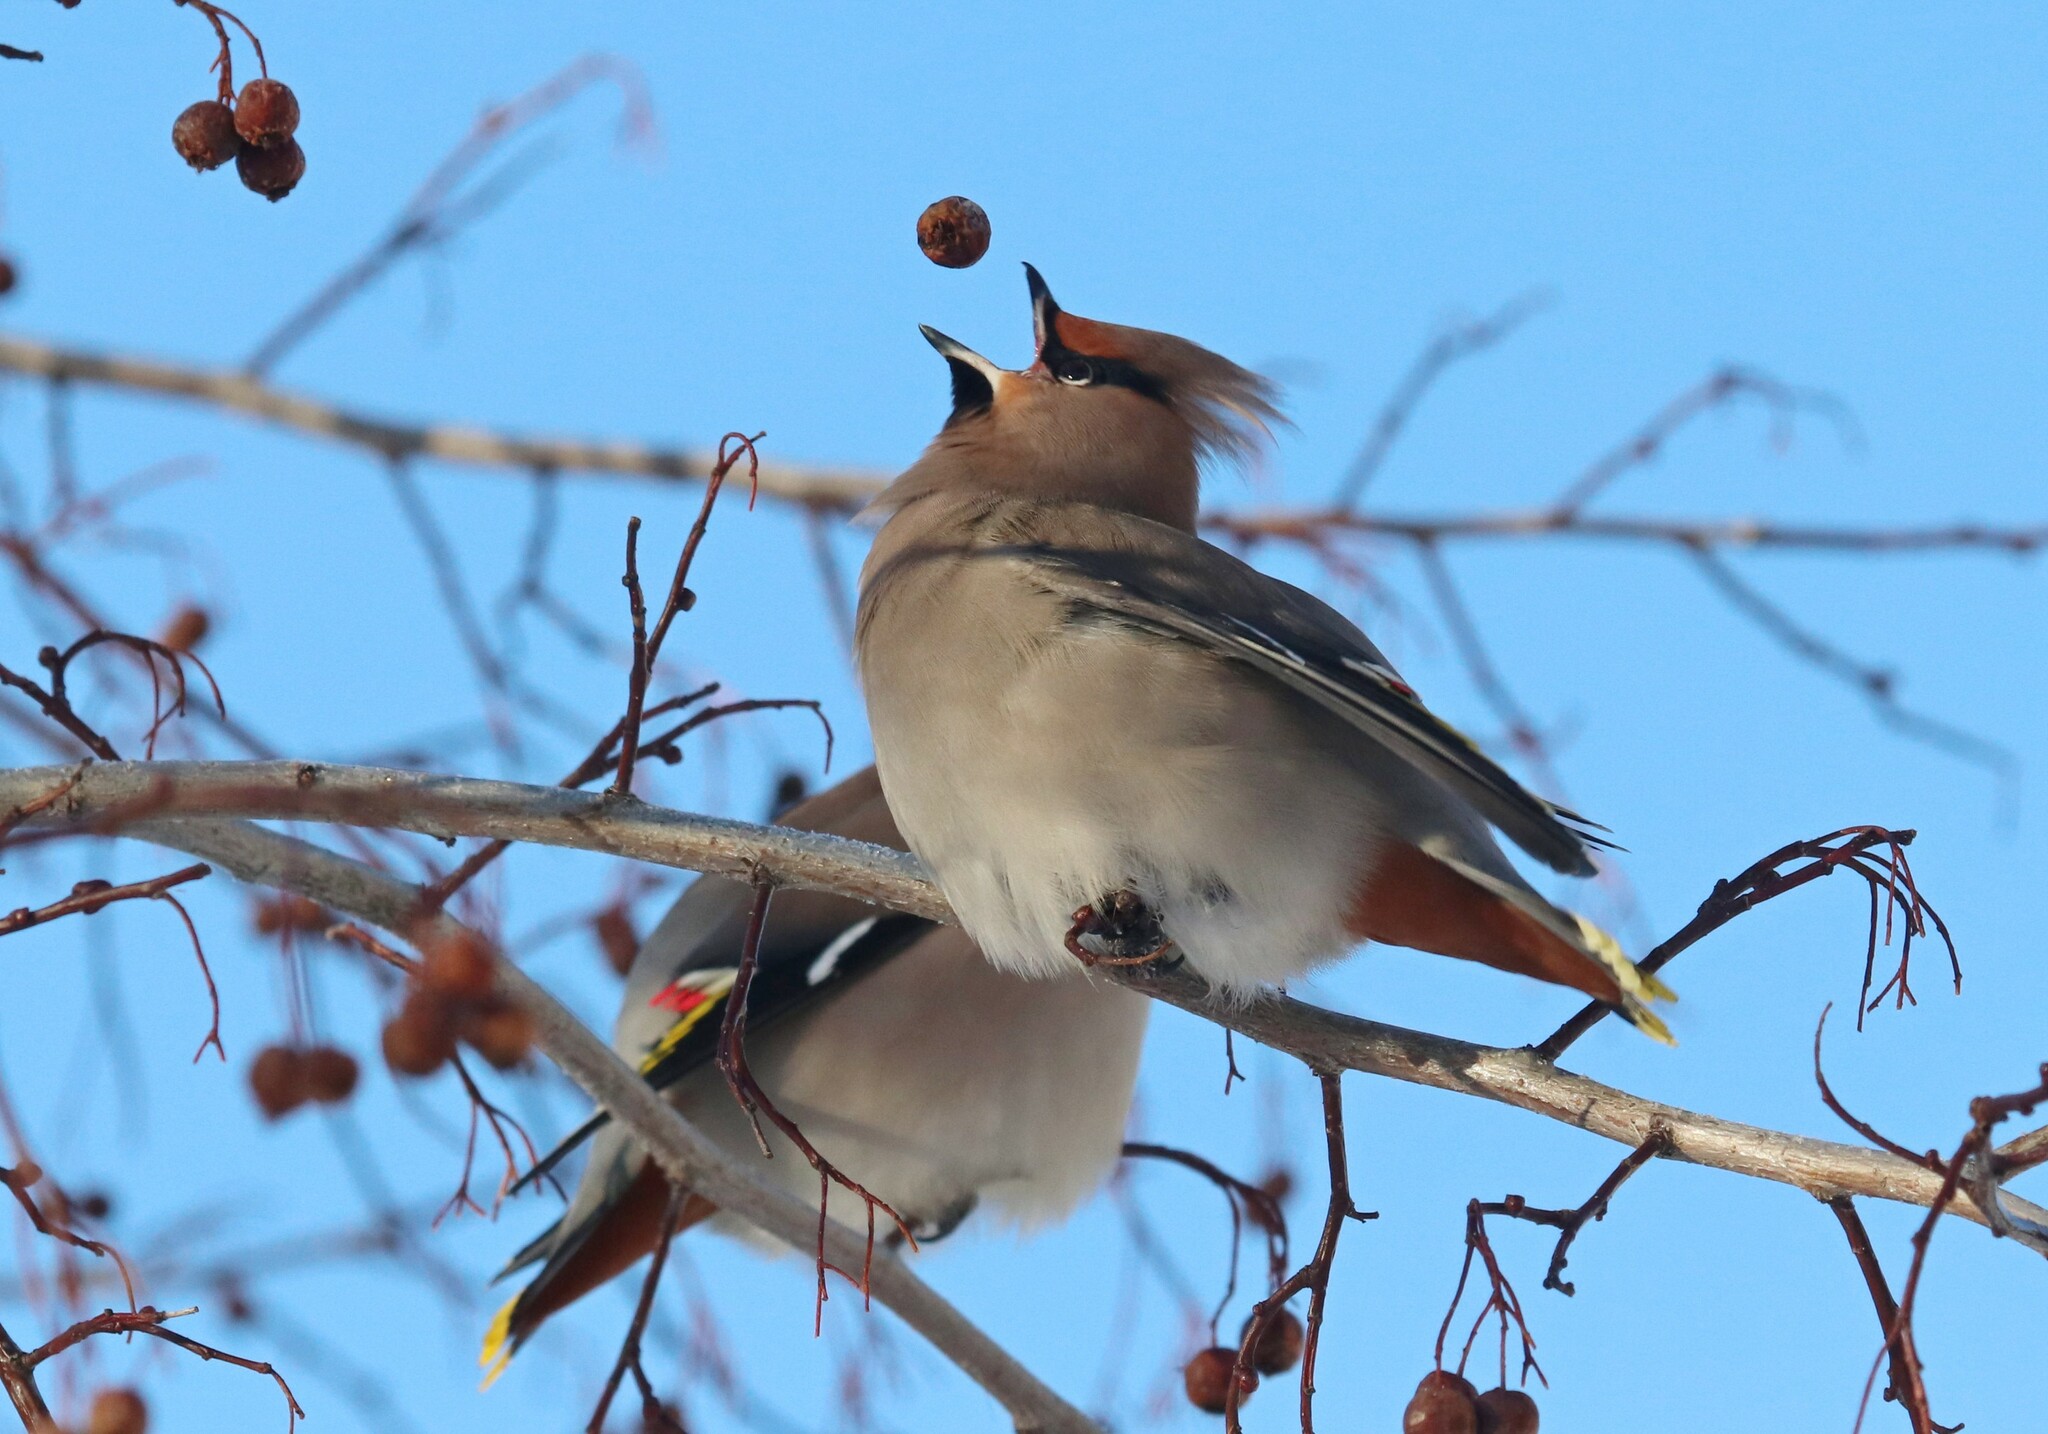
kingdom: Animalia
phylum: Chordata
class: Aves
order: Passeriformes
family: Bombycillidae
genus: Bombycilla
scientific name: Bombycilla garrulus
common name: Bohemian waxwing
